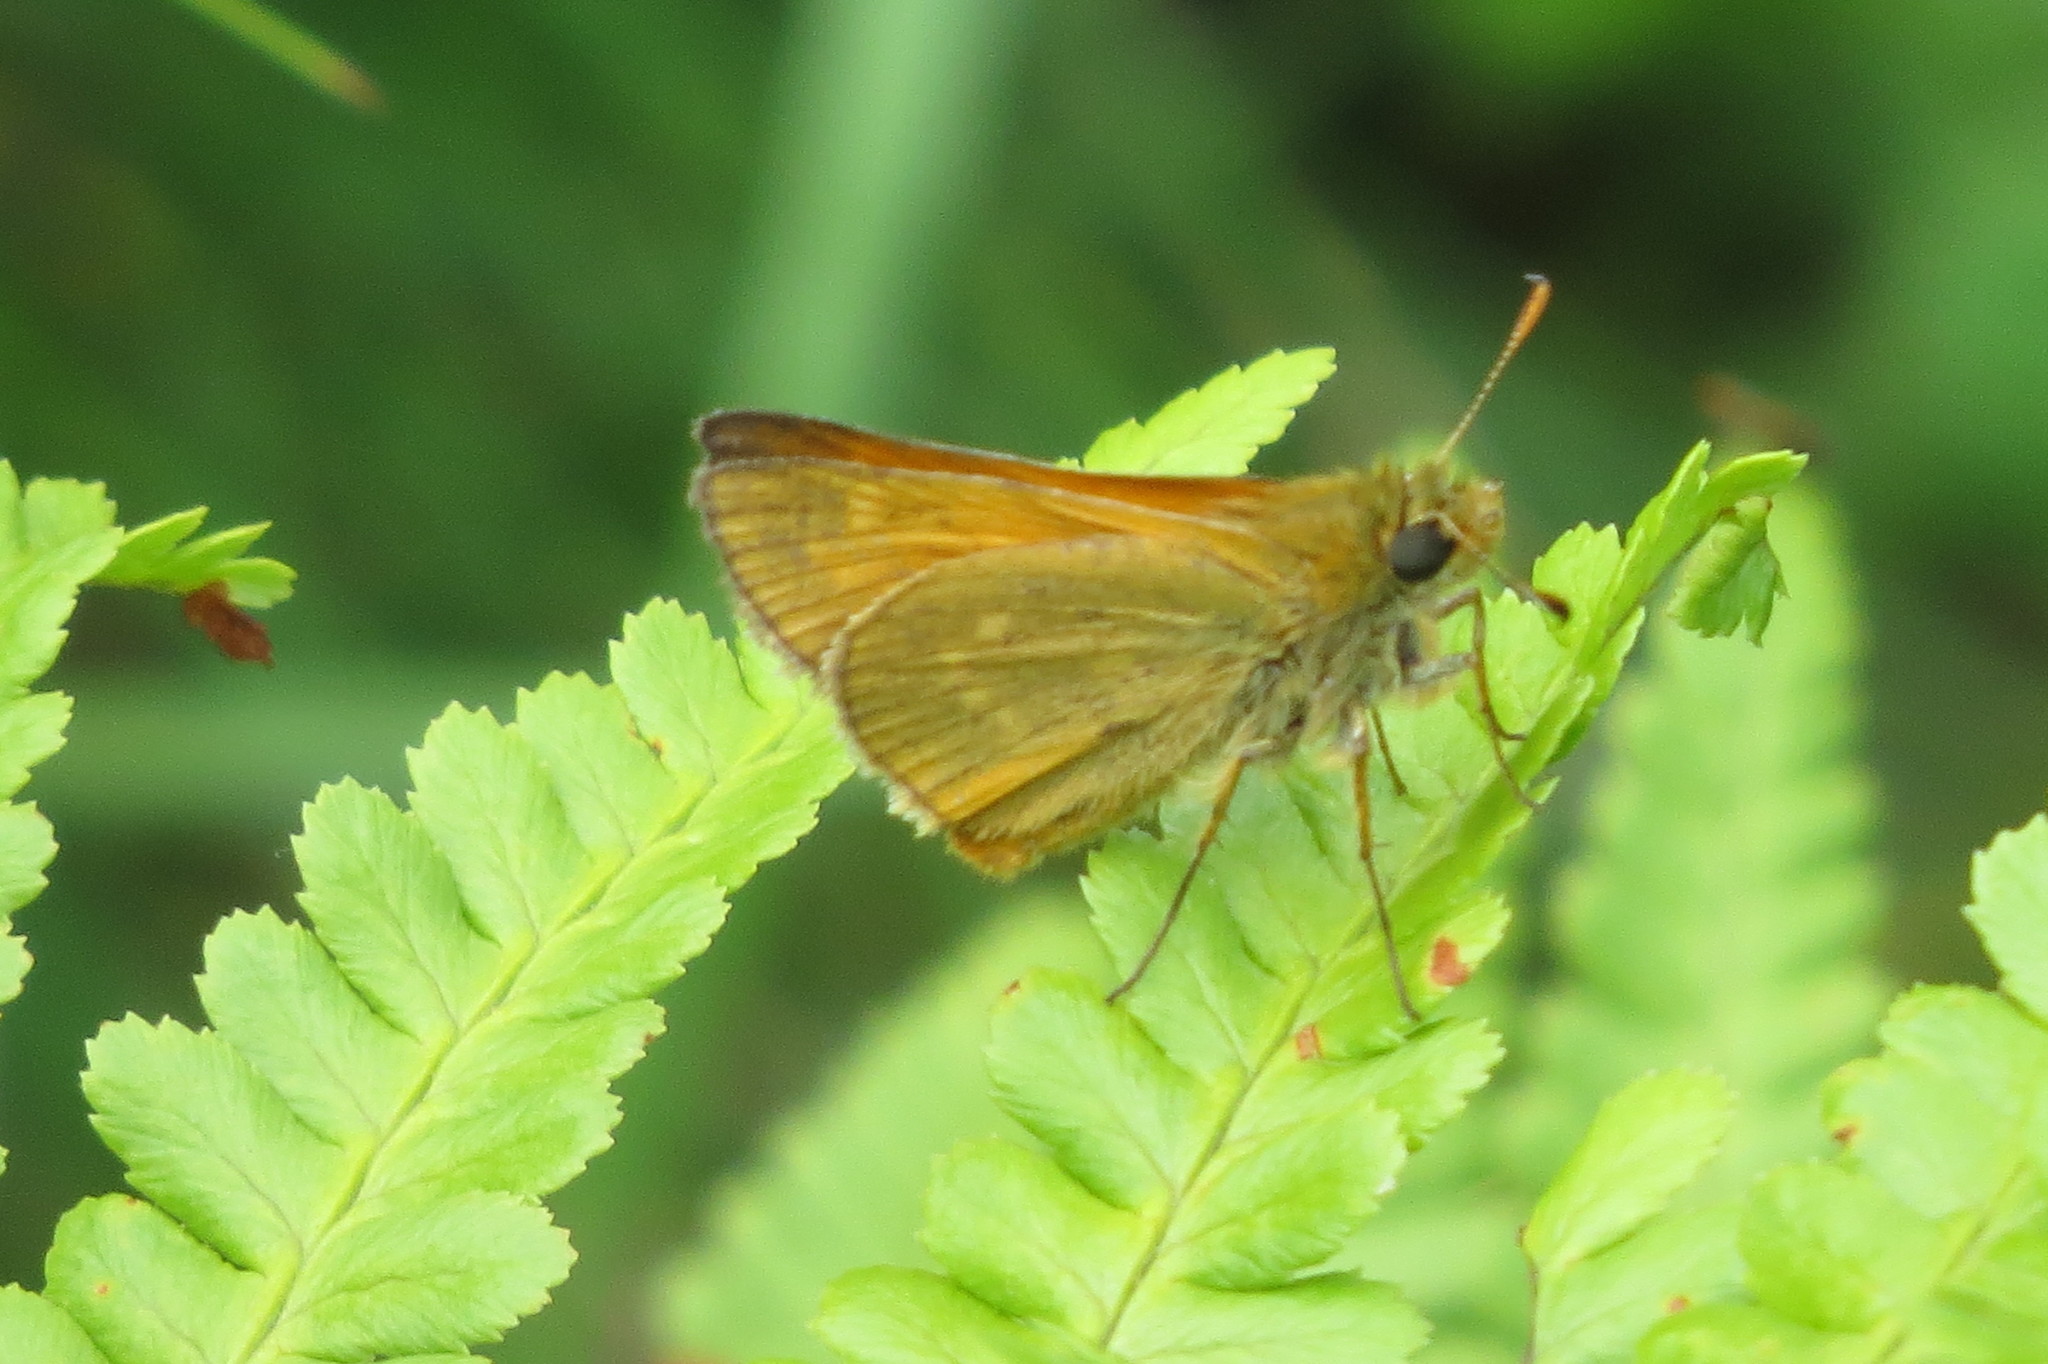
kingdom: Animalia
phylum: Arthropoda
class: Insecta
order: Lepidoptera
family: Hesperiidae
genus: Ochlodes
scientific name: Ochlodes venata
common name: Large skipper
